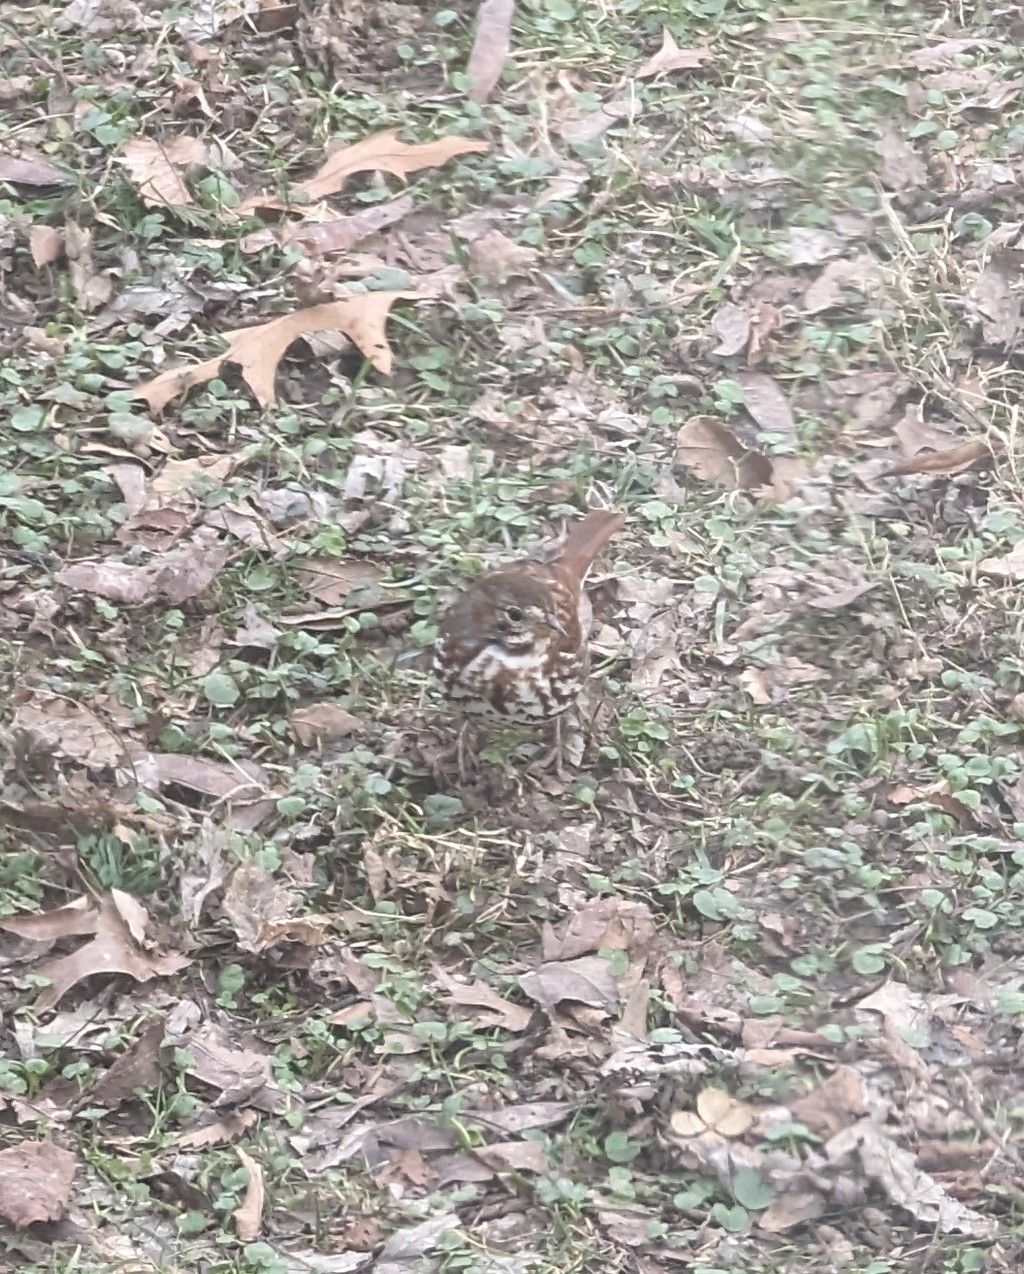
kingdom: Animalia
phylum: Chordata
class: Aves
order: Passeriformes
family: Passerellidae
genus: Passerella
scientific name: Passerella iliaca
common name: Fox sparrow
